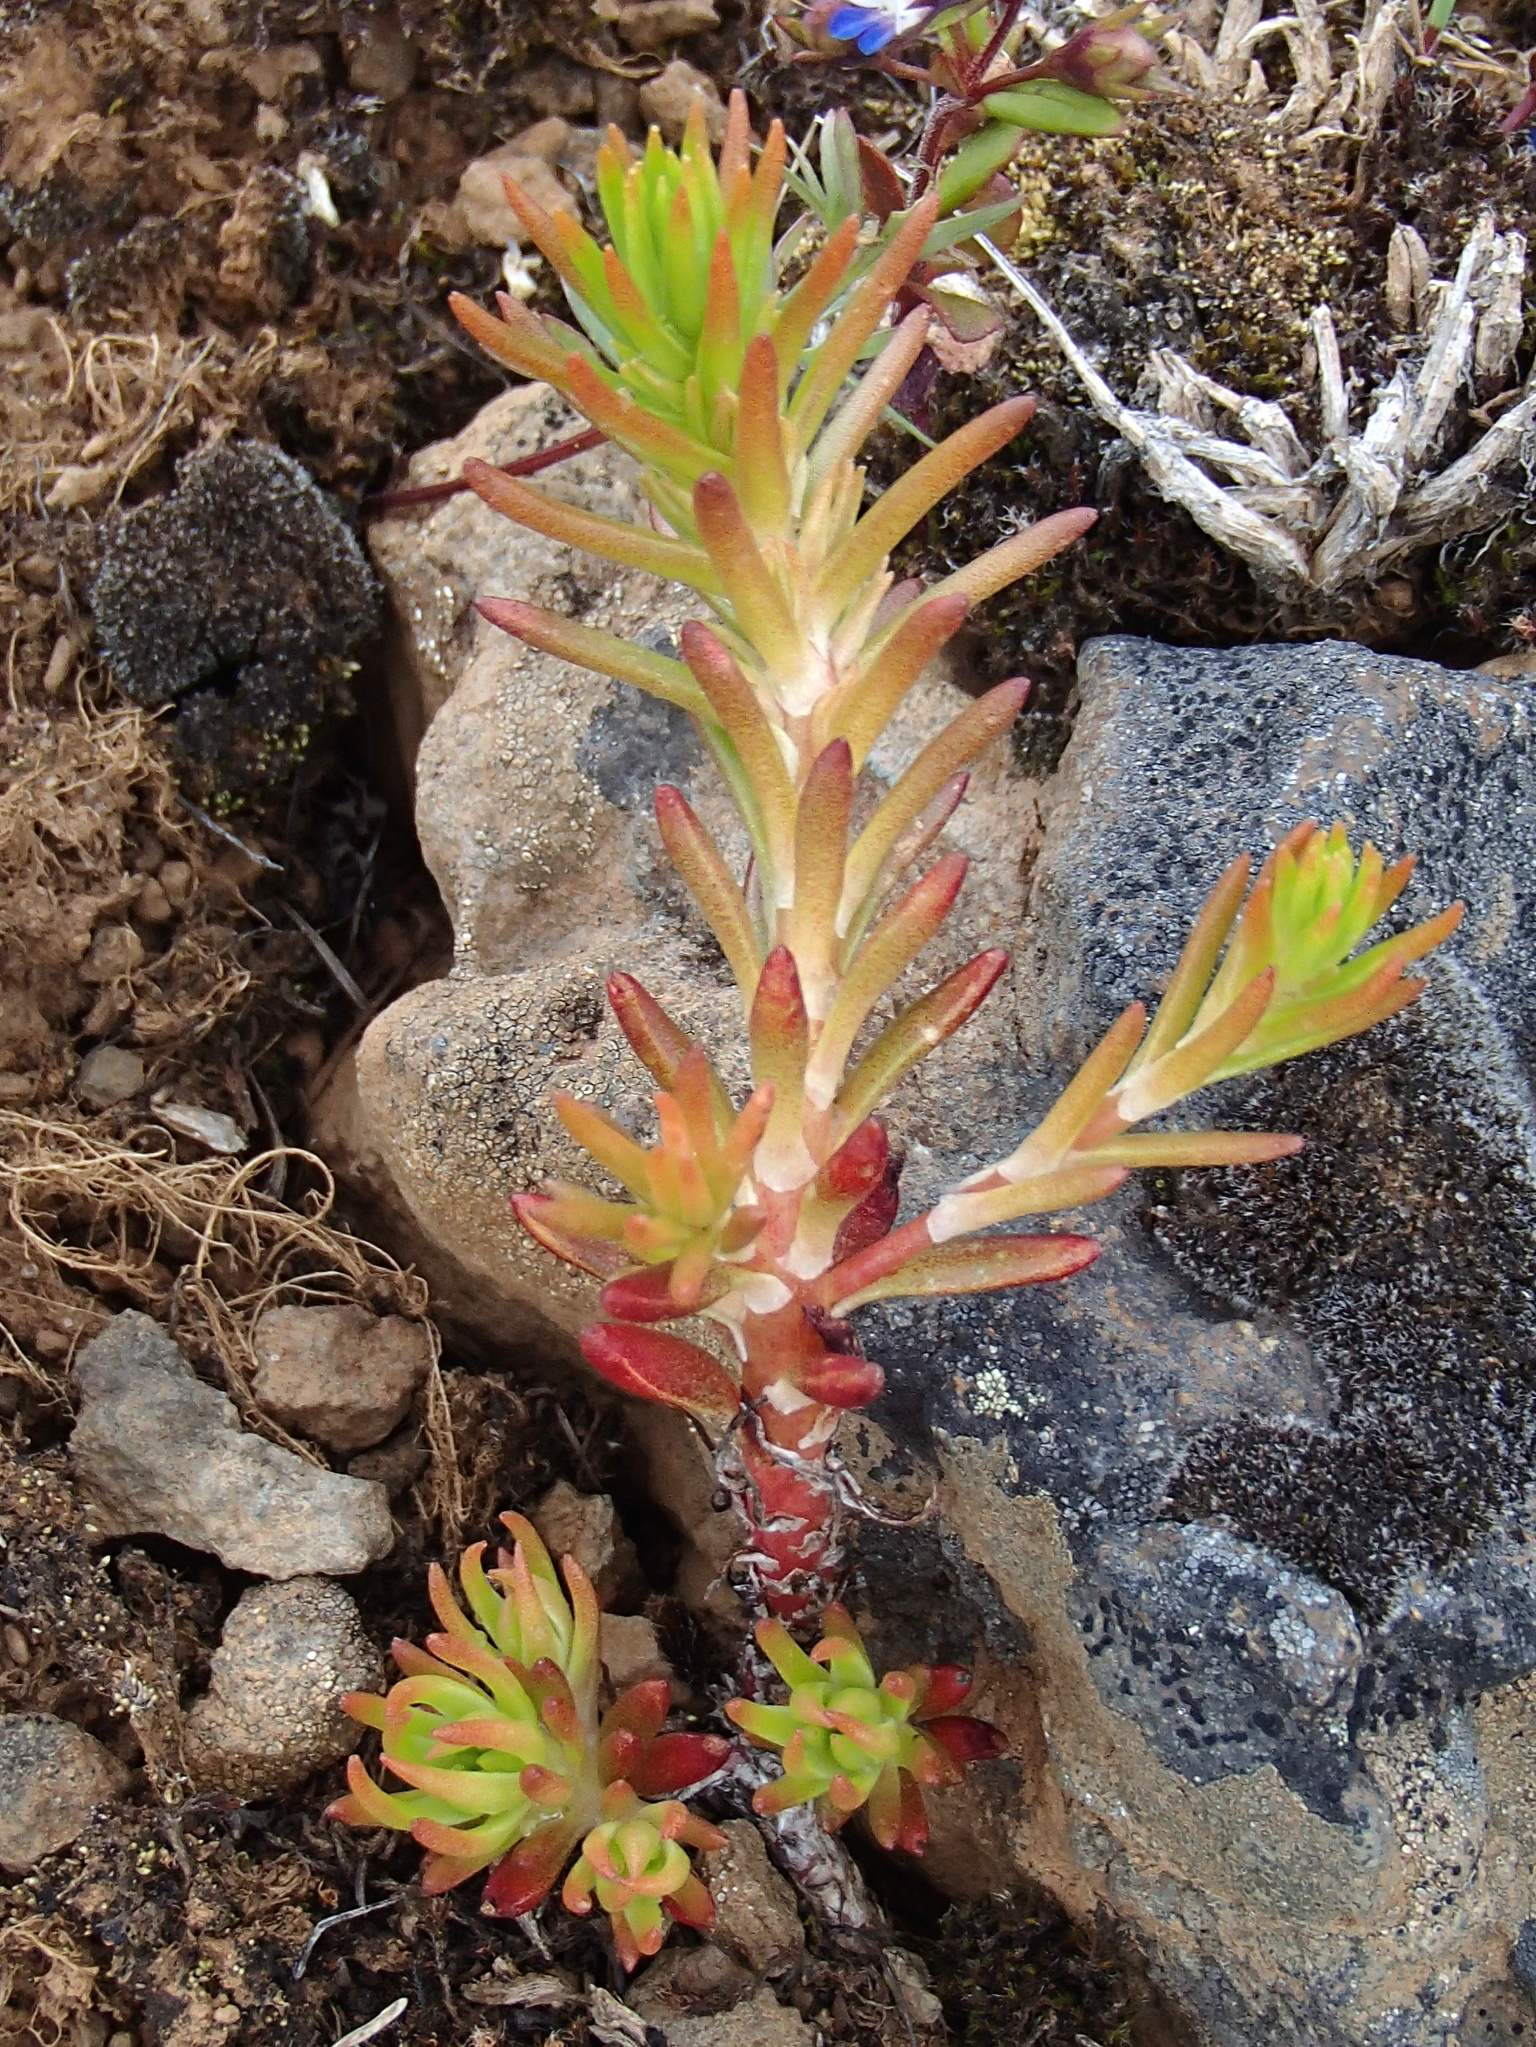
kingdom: Plantae
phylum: Tracheophyta
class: Magnoliopsida
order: Saxifragales
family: Crassulaceae
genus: Sedum
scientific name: Sedum stenopetalum
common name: Narrow-petaled stonecrop
